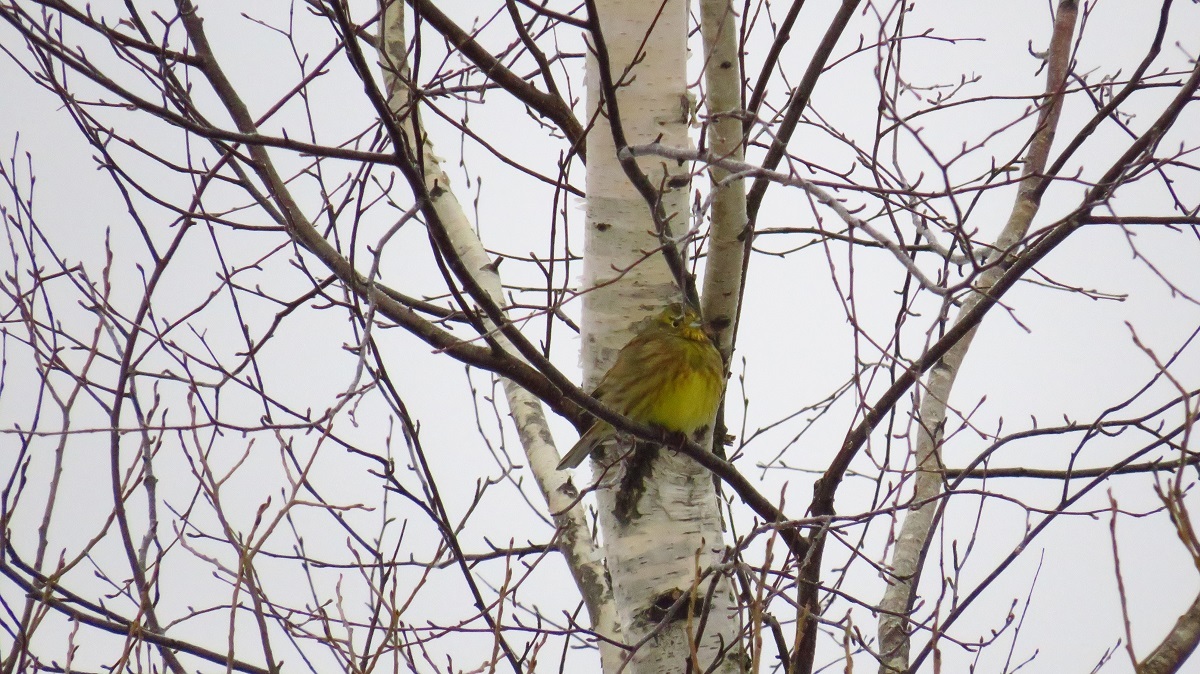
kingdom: Animalia
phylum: Chordata
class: Aves
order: Passeriformes
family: Emberizidae
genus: Emberiza
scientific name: Emberiza citrinella
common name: Yellowhammer
